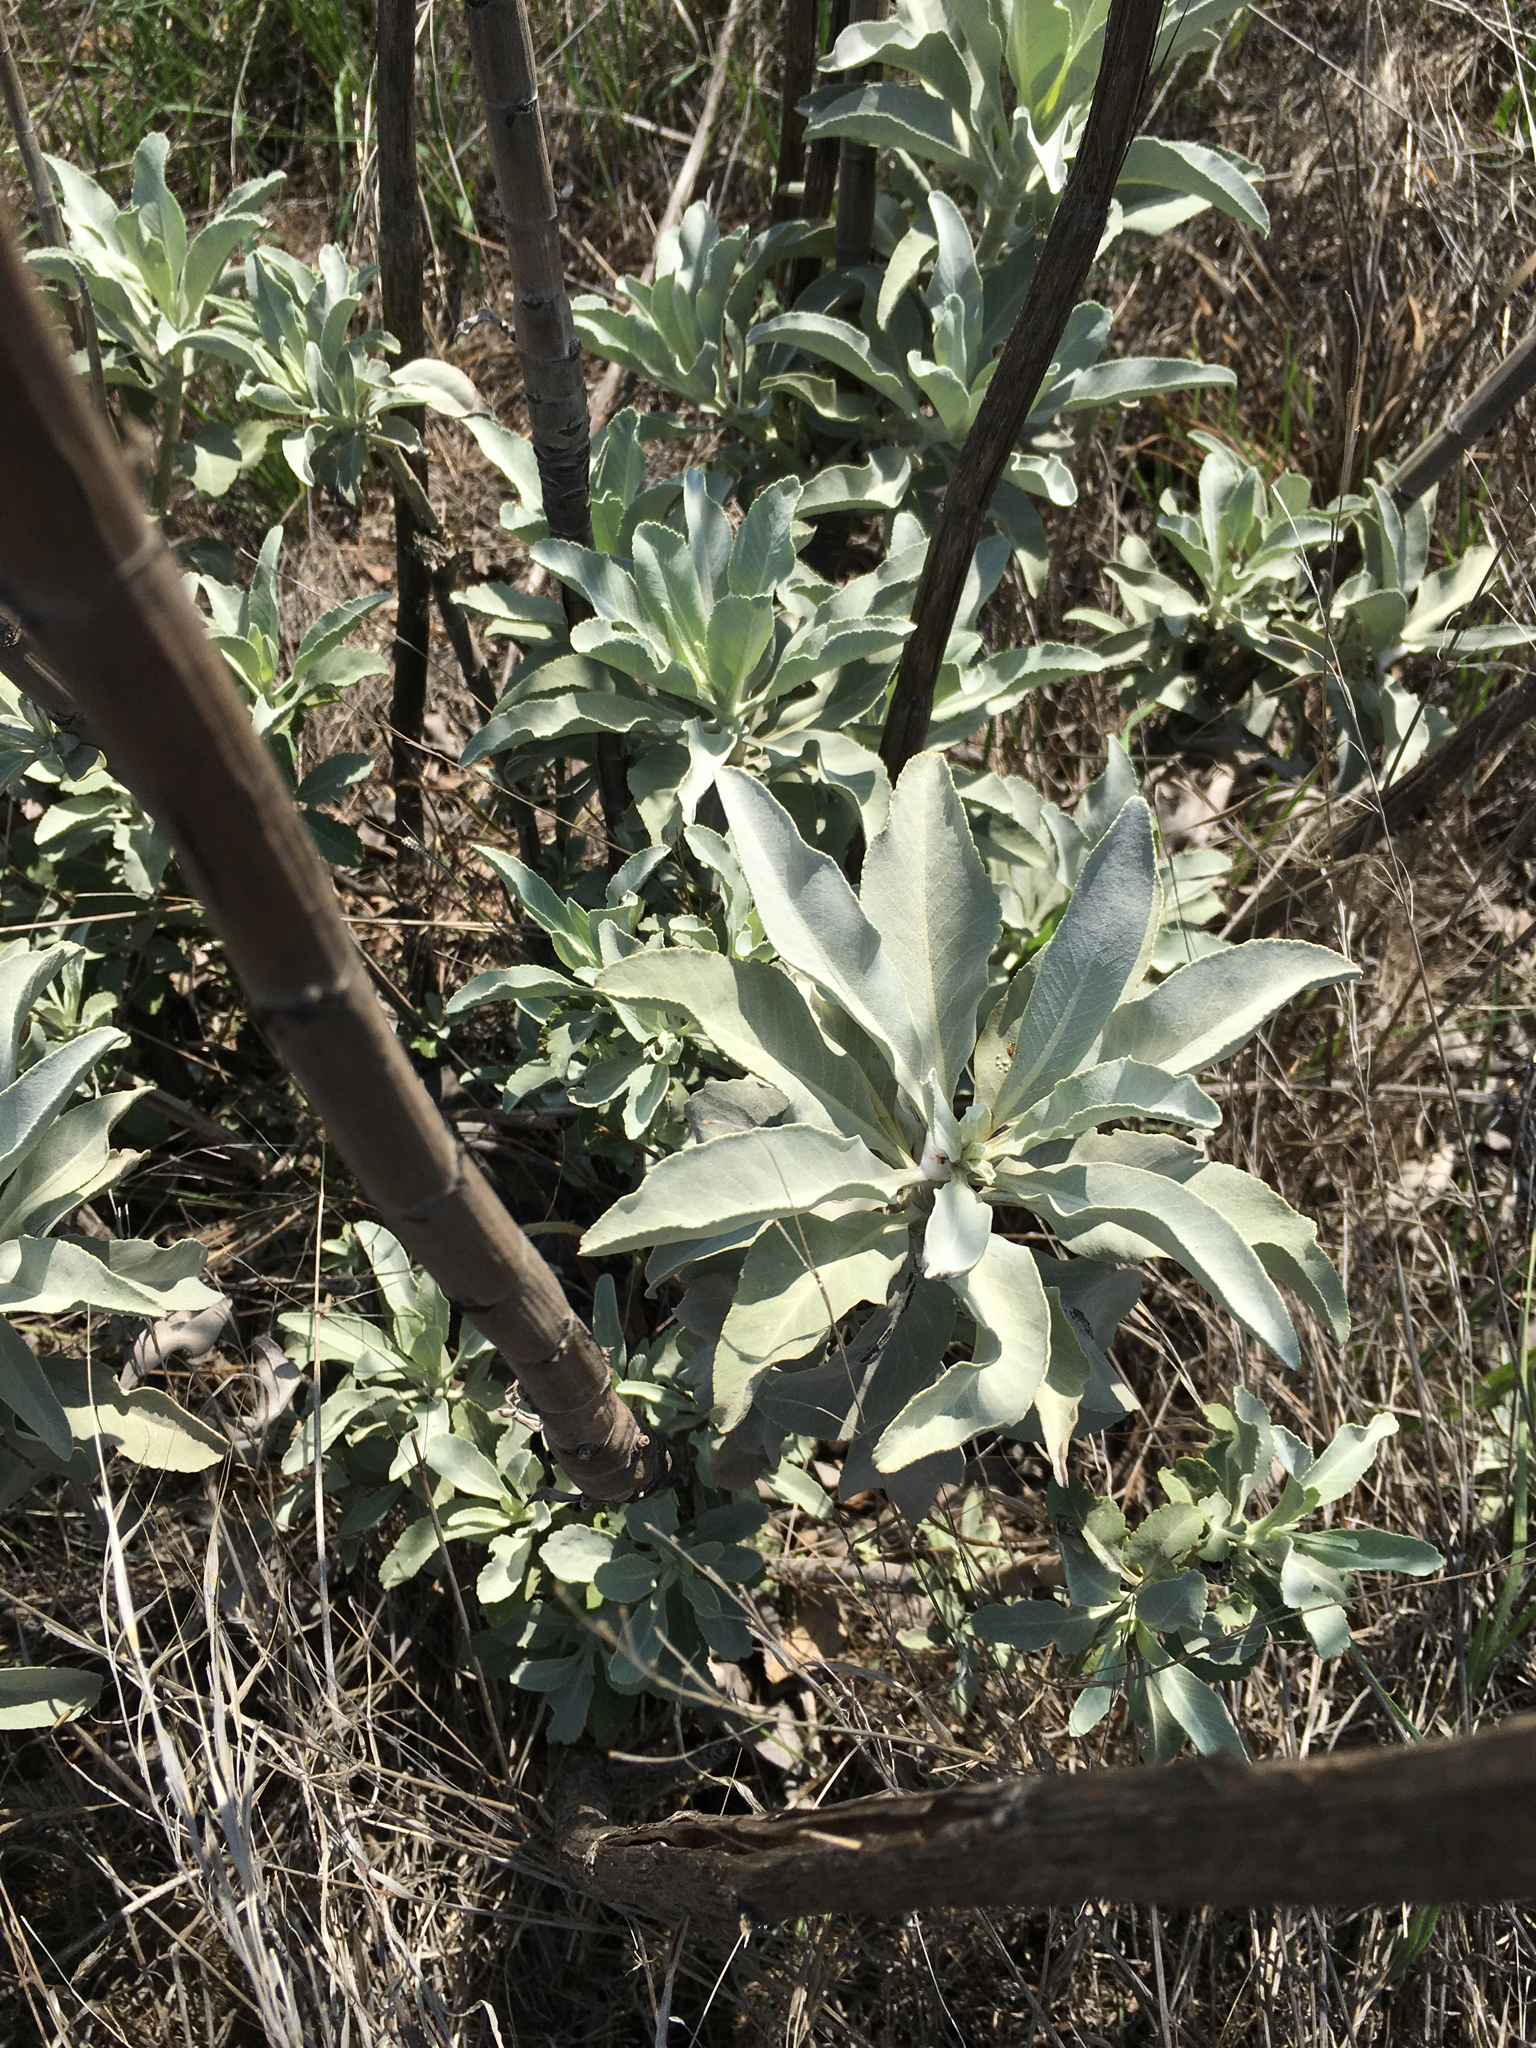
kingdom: Plantae
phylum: Tracheophyta
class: Magnoliopsida
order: Lamiales
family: Lamiaceae
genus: Salvia
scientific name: Salvia apiana
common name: White sage
